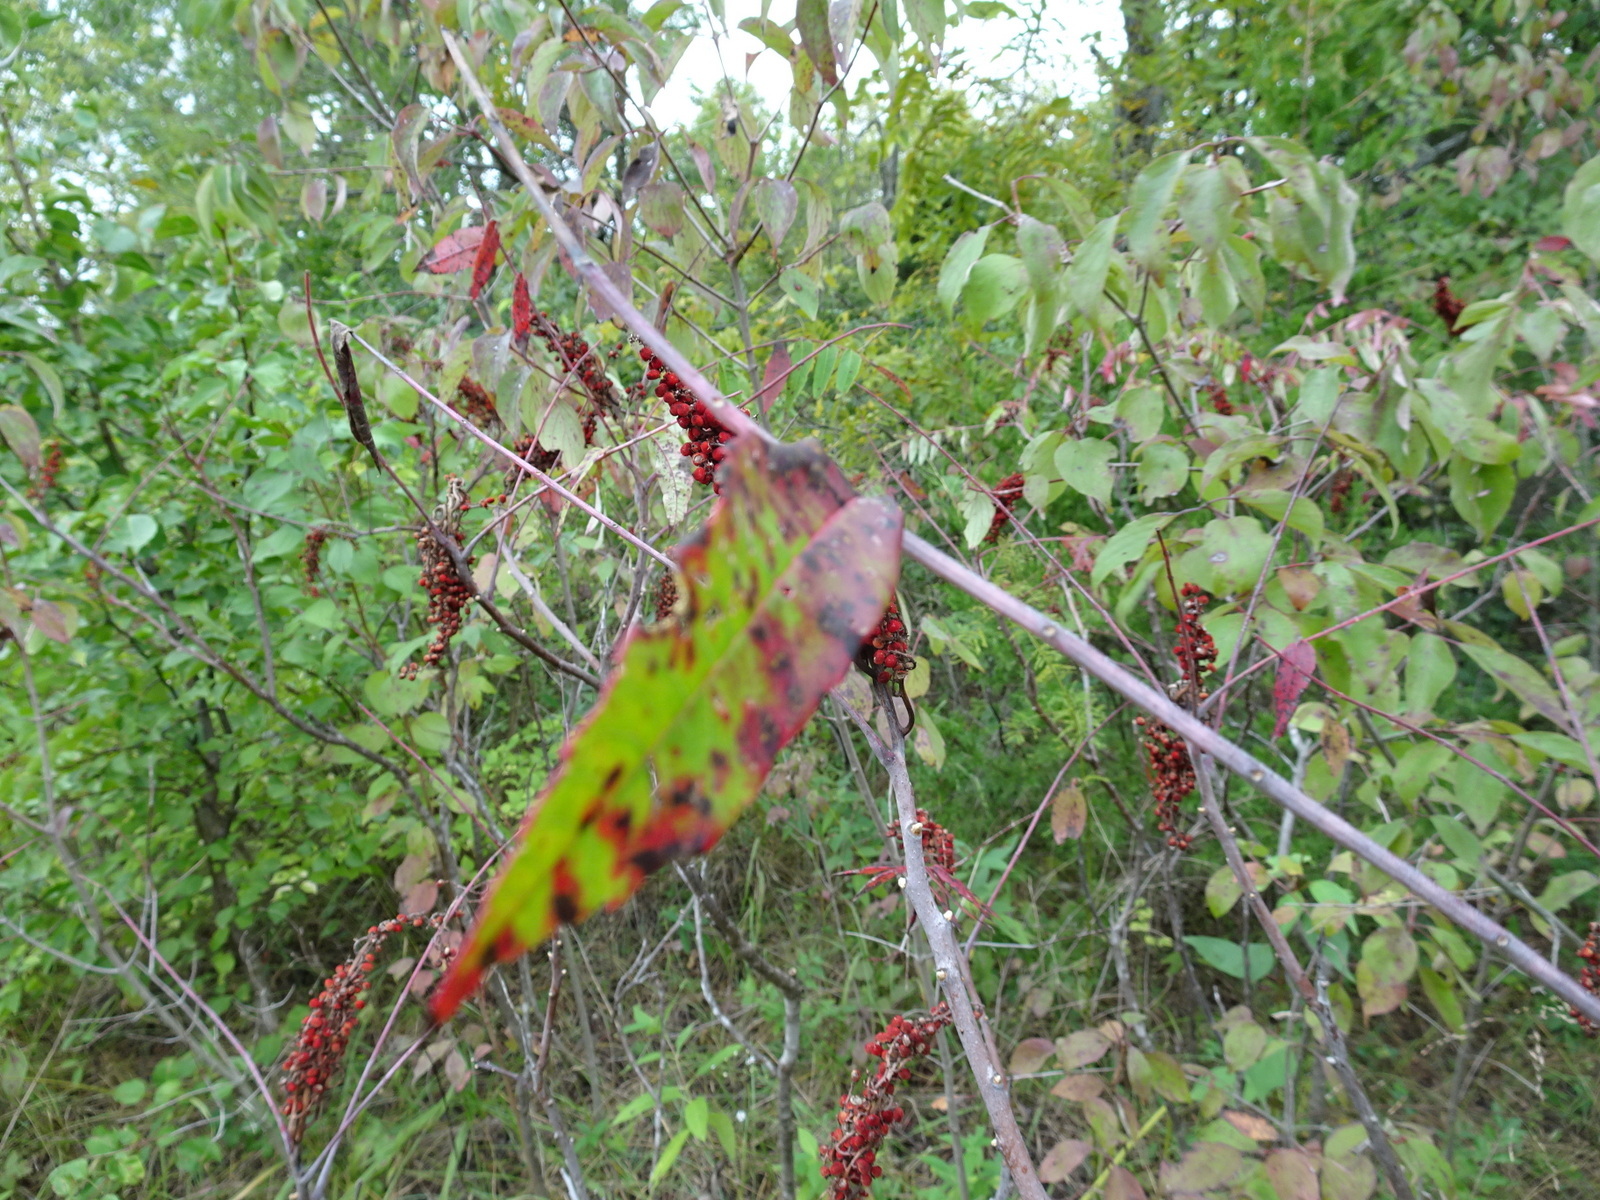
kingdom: Plantae
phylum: Tracheophyta
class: Magnoliopsida
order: Sapindales
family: Anacardiaceae
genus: Rhus
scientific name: Rhus glabra
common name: Scarlet sumac
